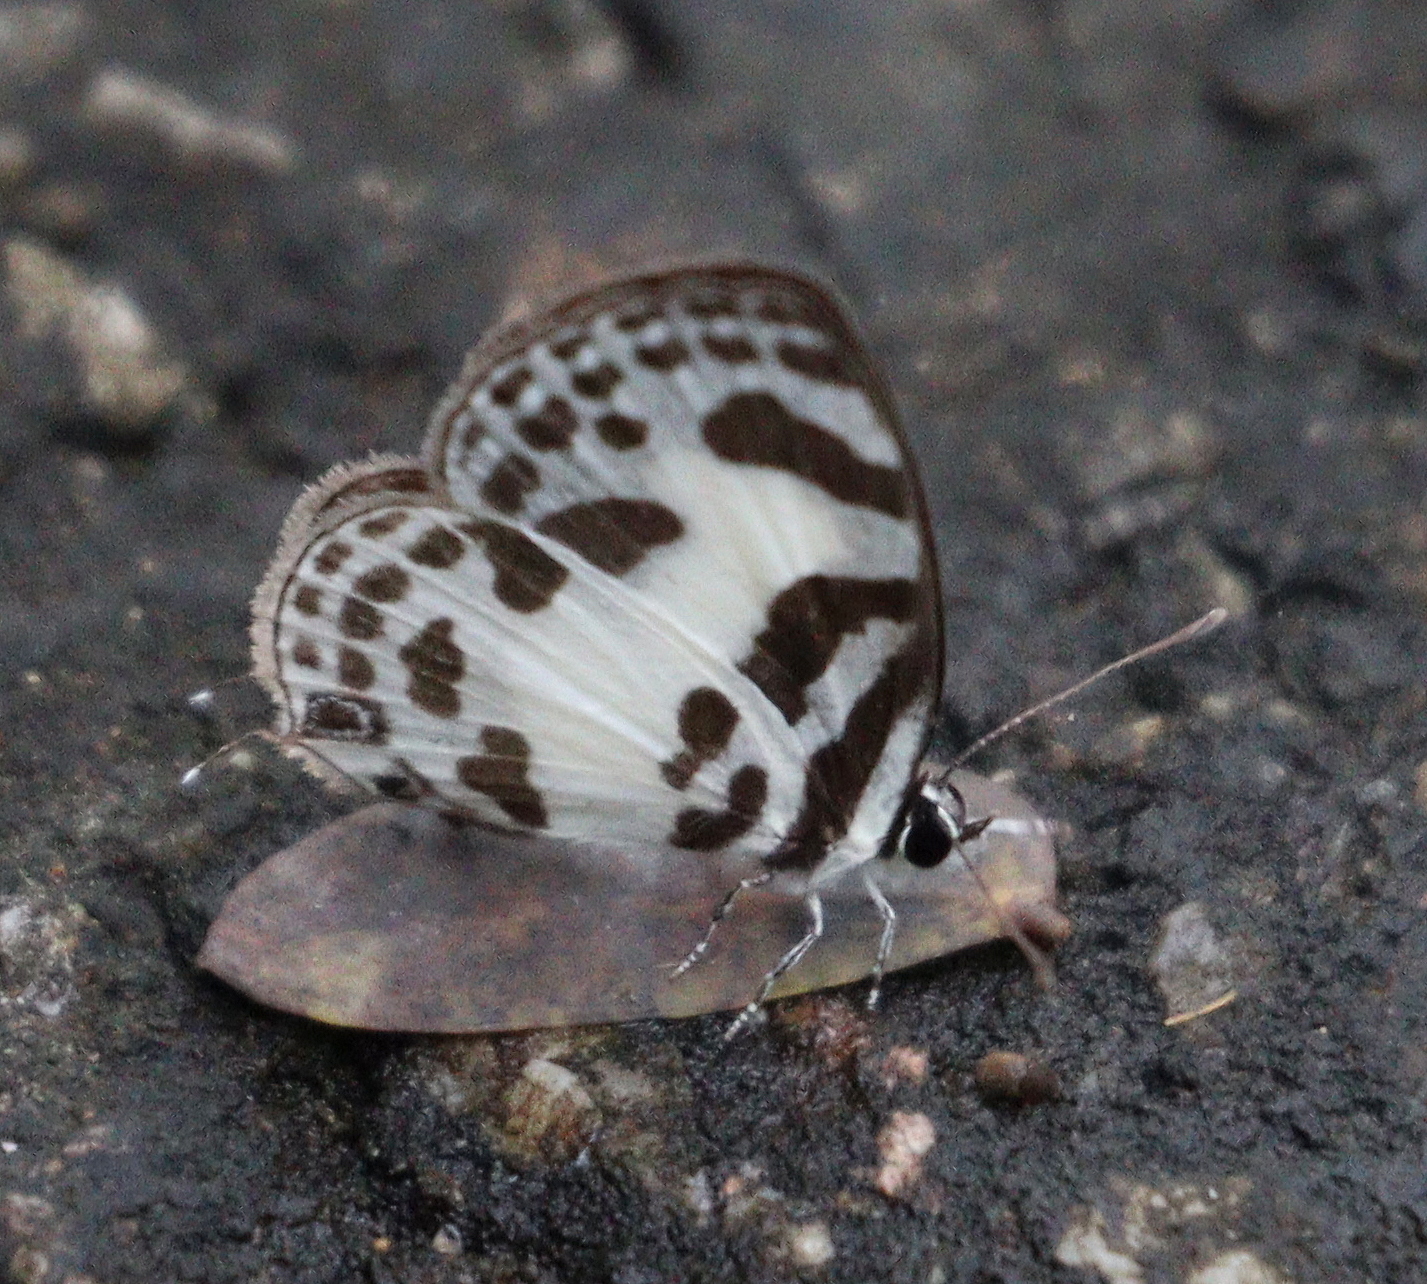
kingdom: Animalia
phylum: Arthropoda
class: Insecta
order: Lepidoptera
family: Lycaenidae
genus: Discolampa
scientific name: Discolampa ethion
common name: Banded blue pierrot
